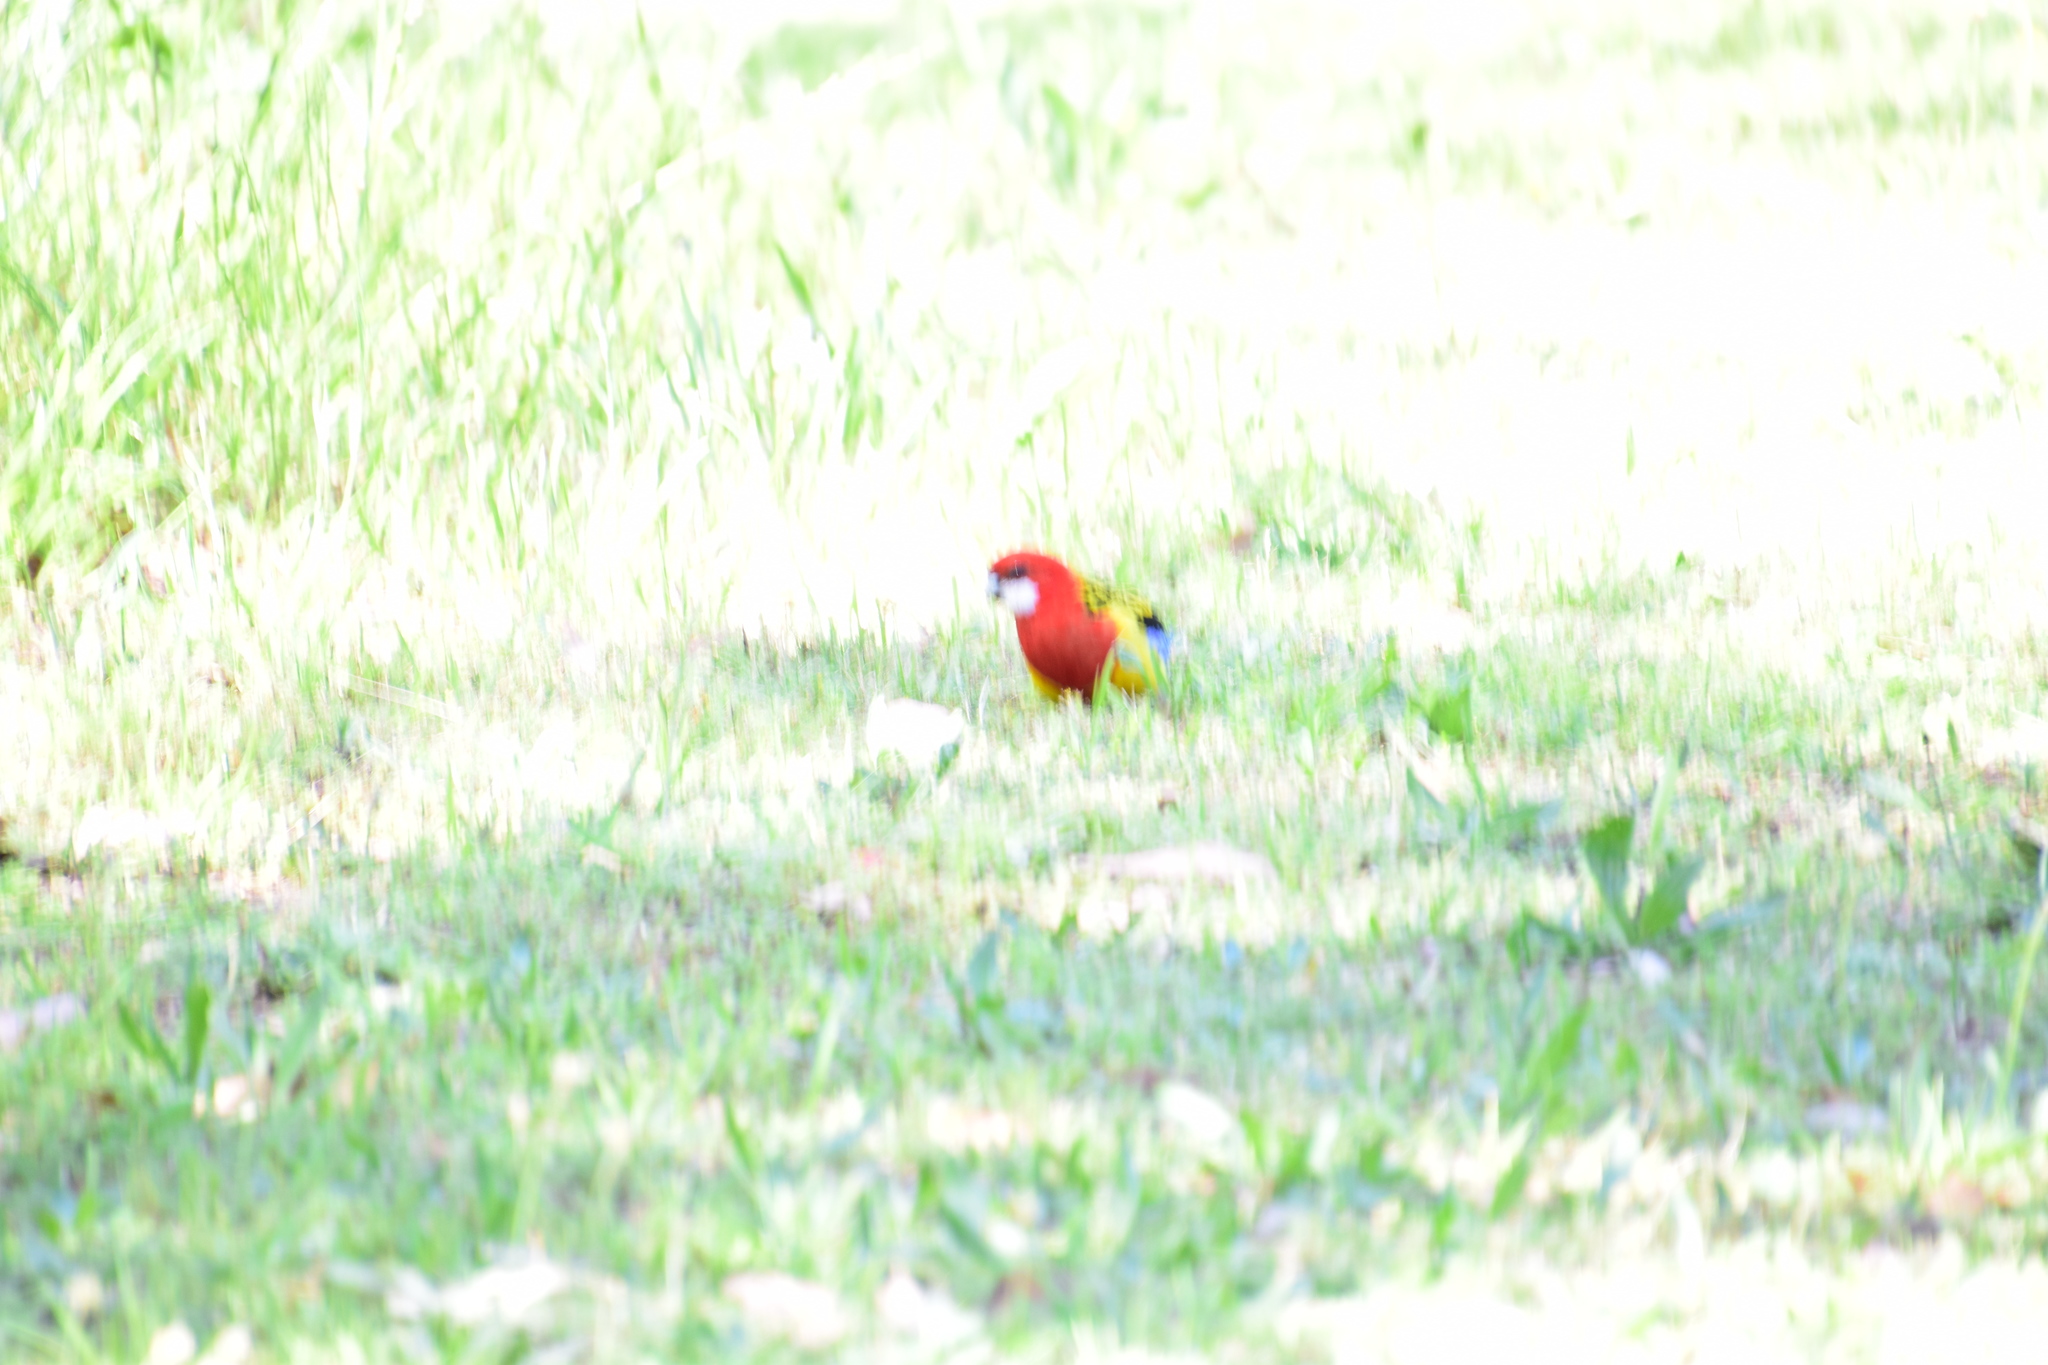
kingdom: Animalia
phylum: Chordata
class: Aves
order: Psittaciformes
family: Psittacidae
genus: Platycercus
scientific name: Platycercus eximius
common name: Eastern rosella
